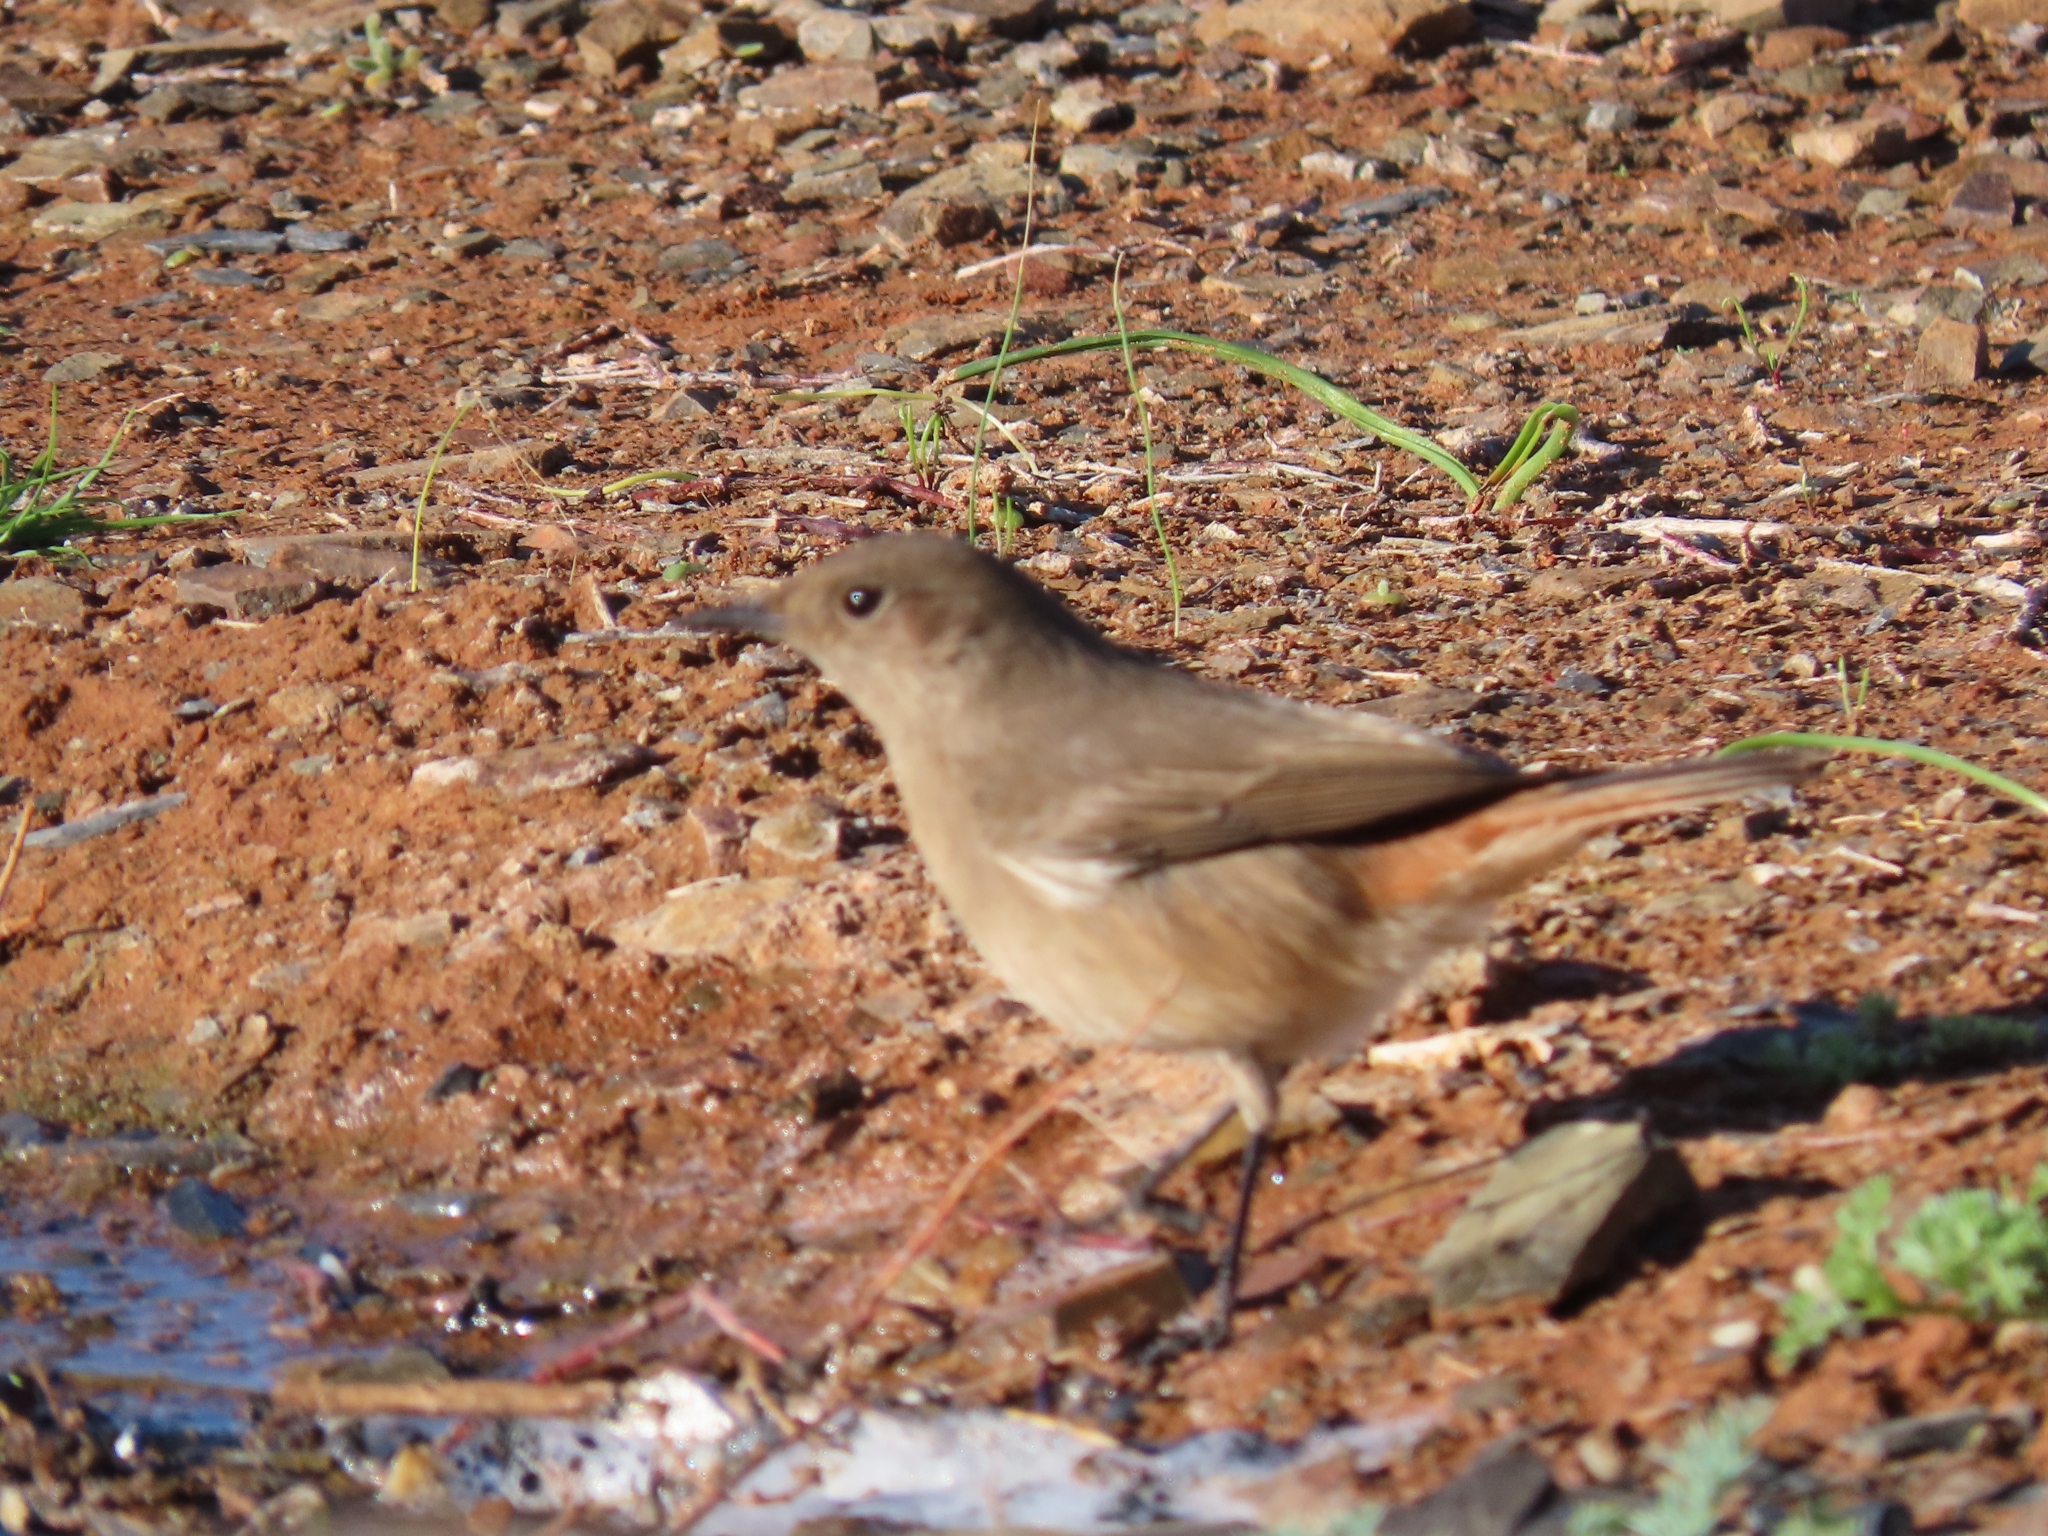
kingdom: Animalia
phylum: Chordata
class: Aves
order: Passeriformes
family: Muscicapidae
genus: Oenanthe
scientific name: Oenanthe familiaris
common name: Familiar chat
